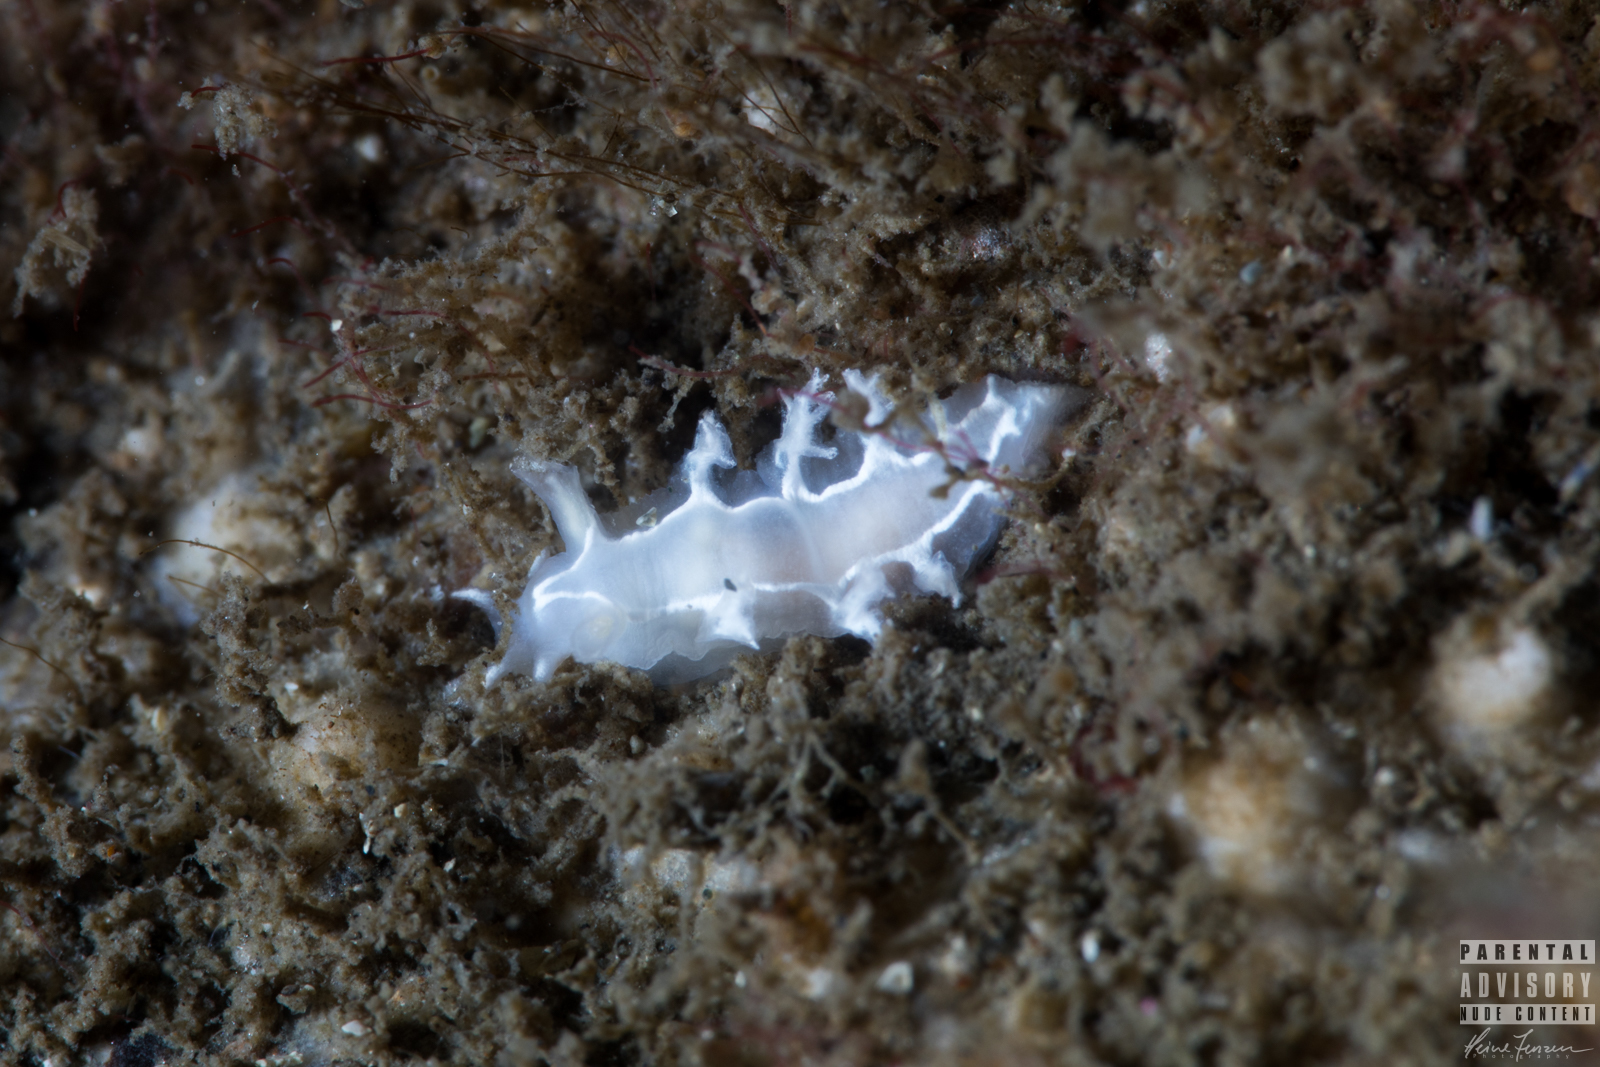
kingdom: Animalia
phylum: Mollusca
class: Gastropoda
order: Nudibranchia
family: Tritoniidae
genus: Duvaucelia
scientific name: Duvaucelia lineata
